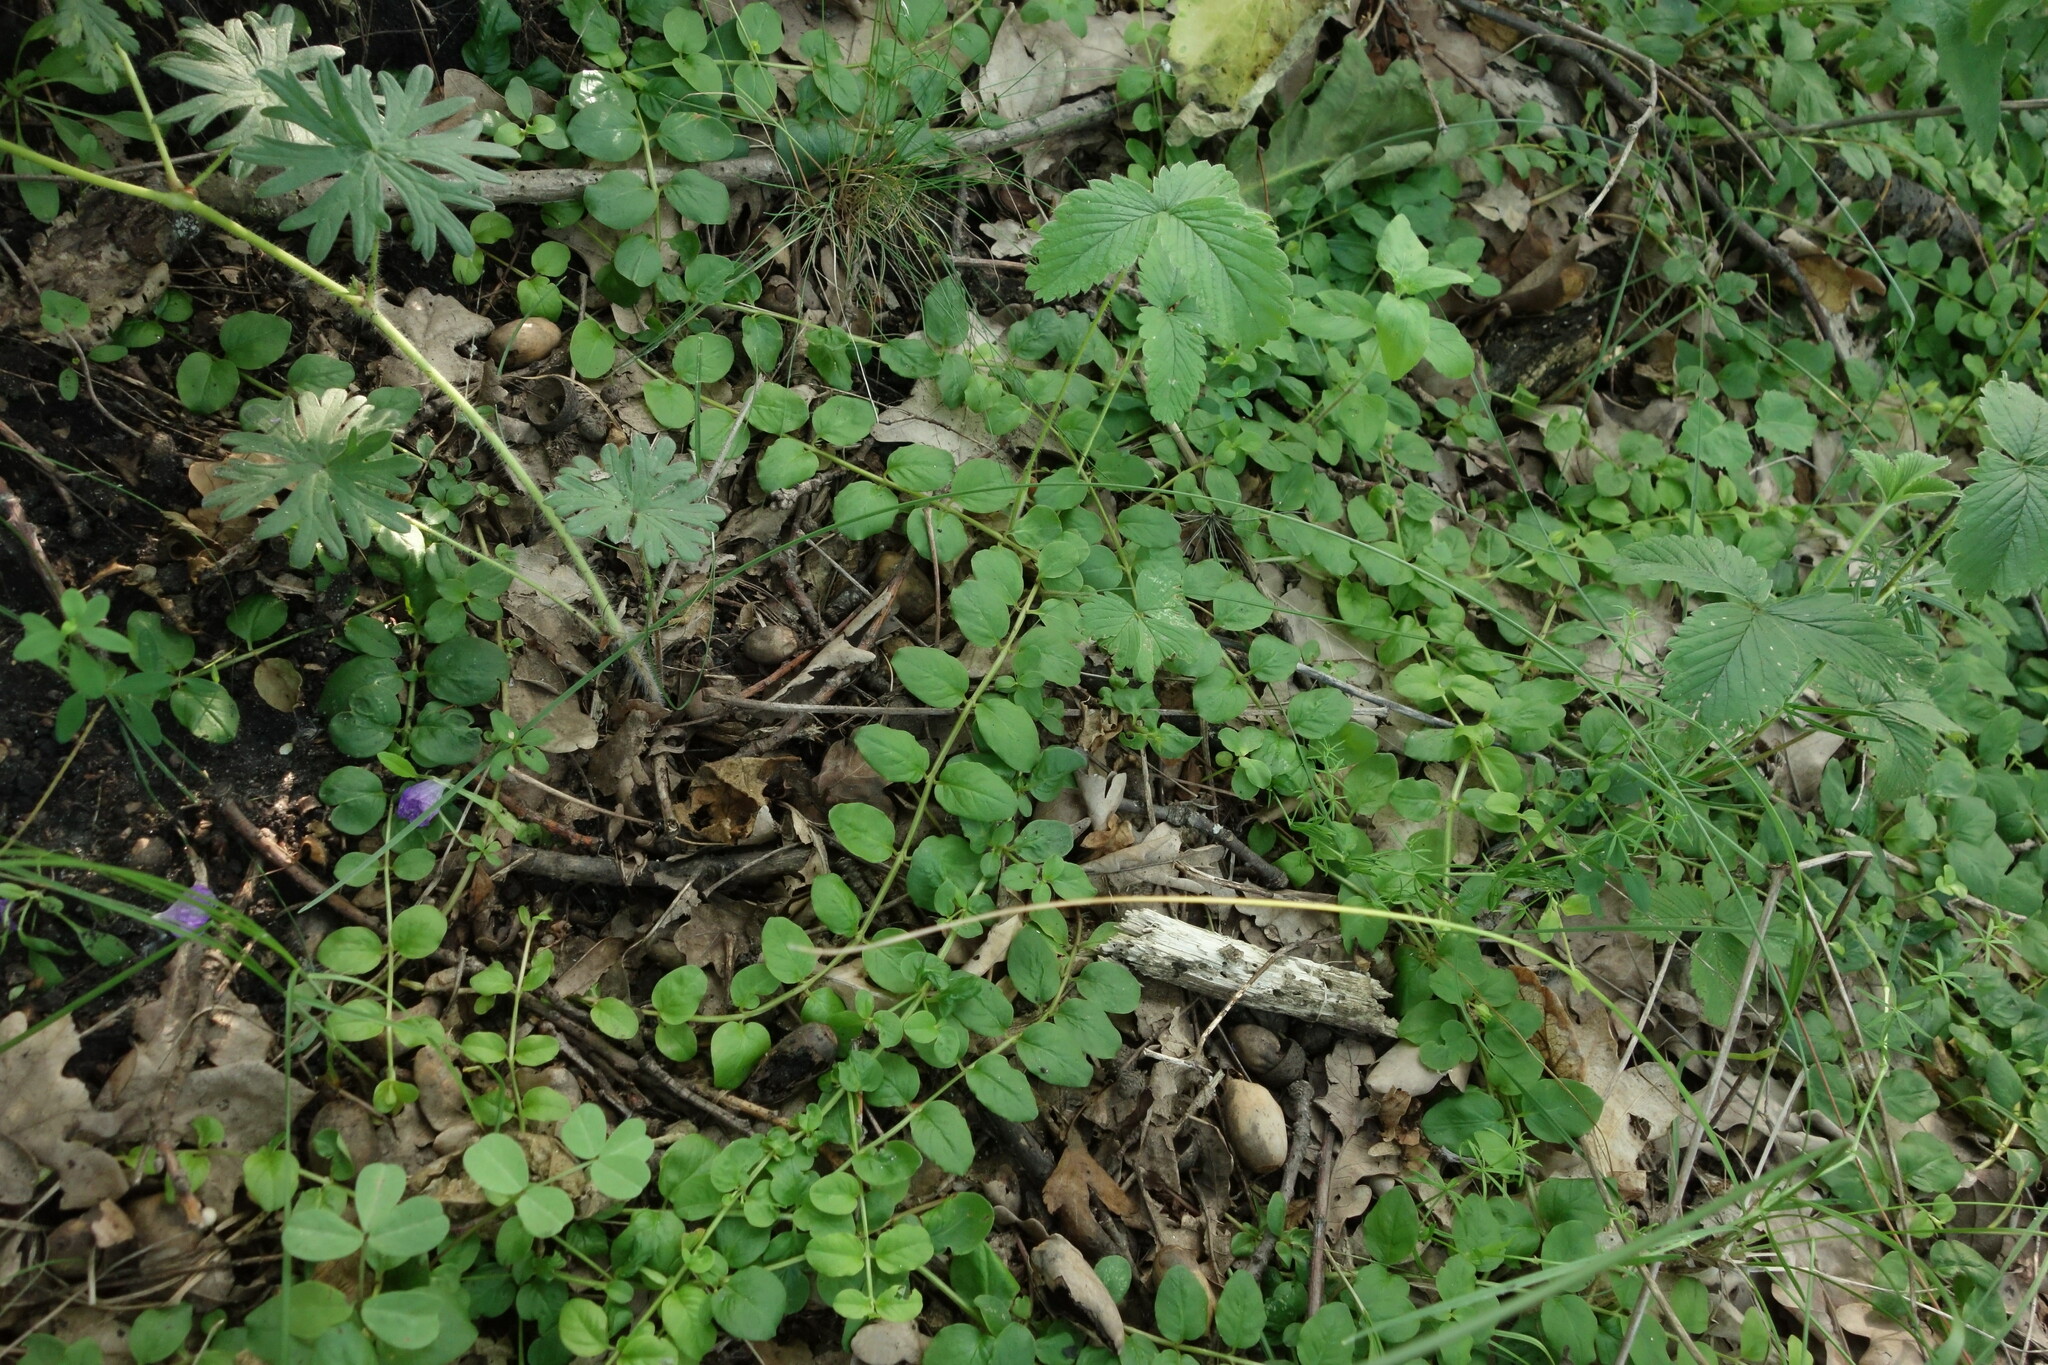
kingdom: Plantae
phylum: Tracheophyta
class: Magnoliopsida
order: Ericales
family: Primulaceae
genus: Lysimachia
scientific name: Lysimachia nummularia
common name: Moneywort
